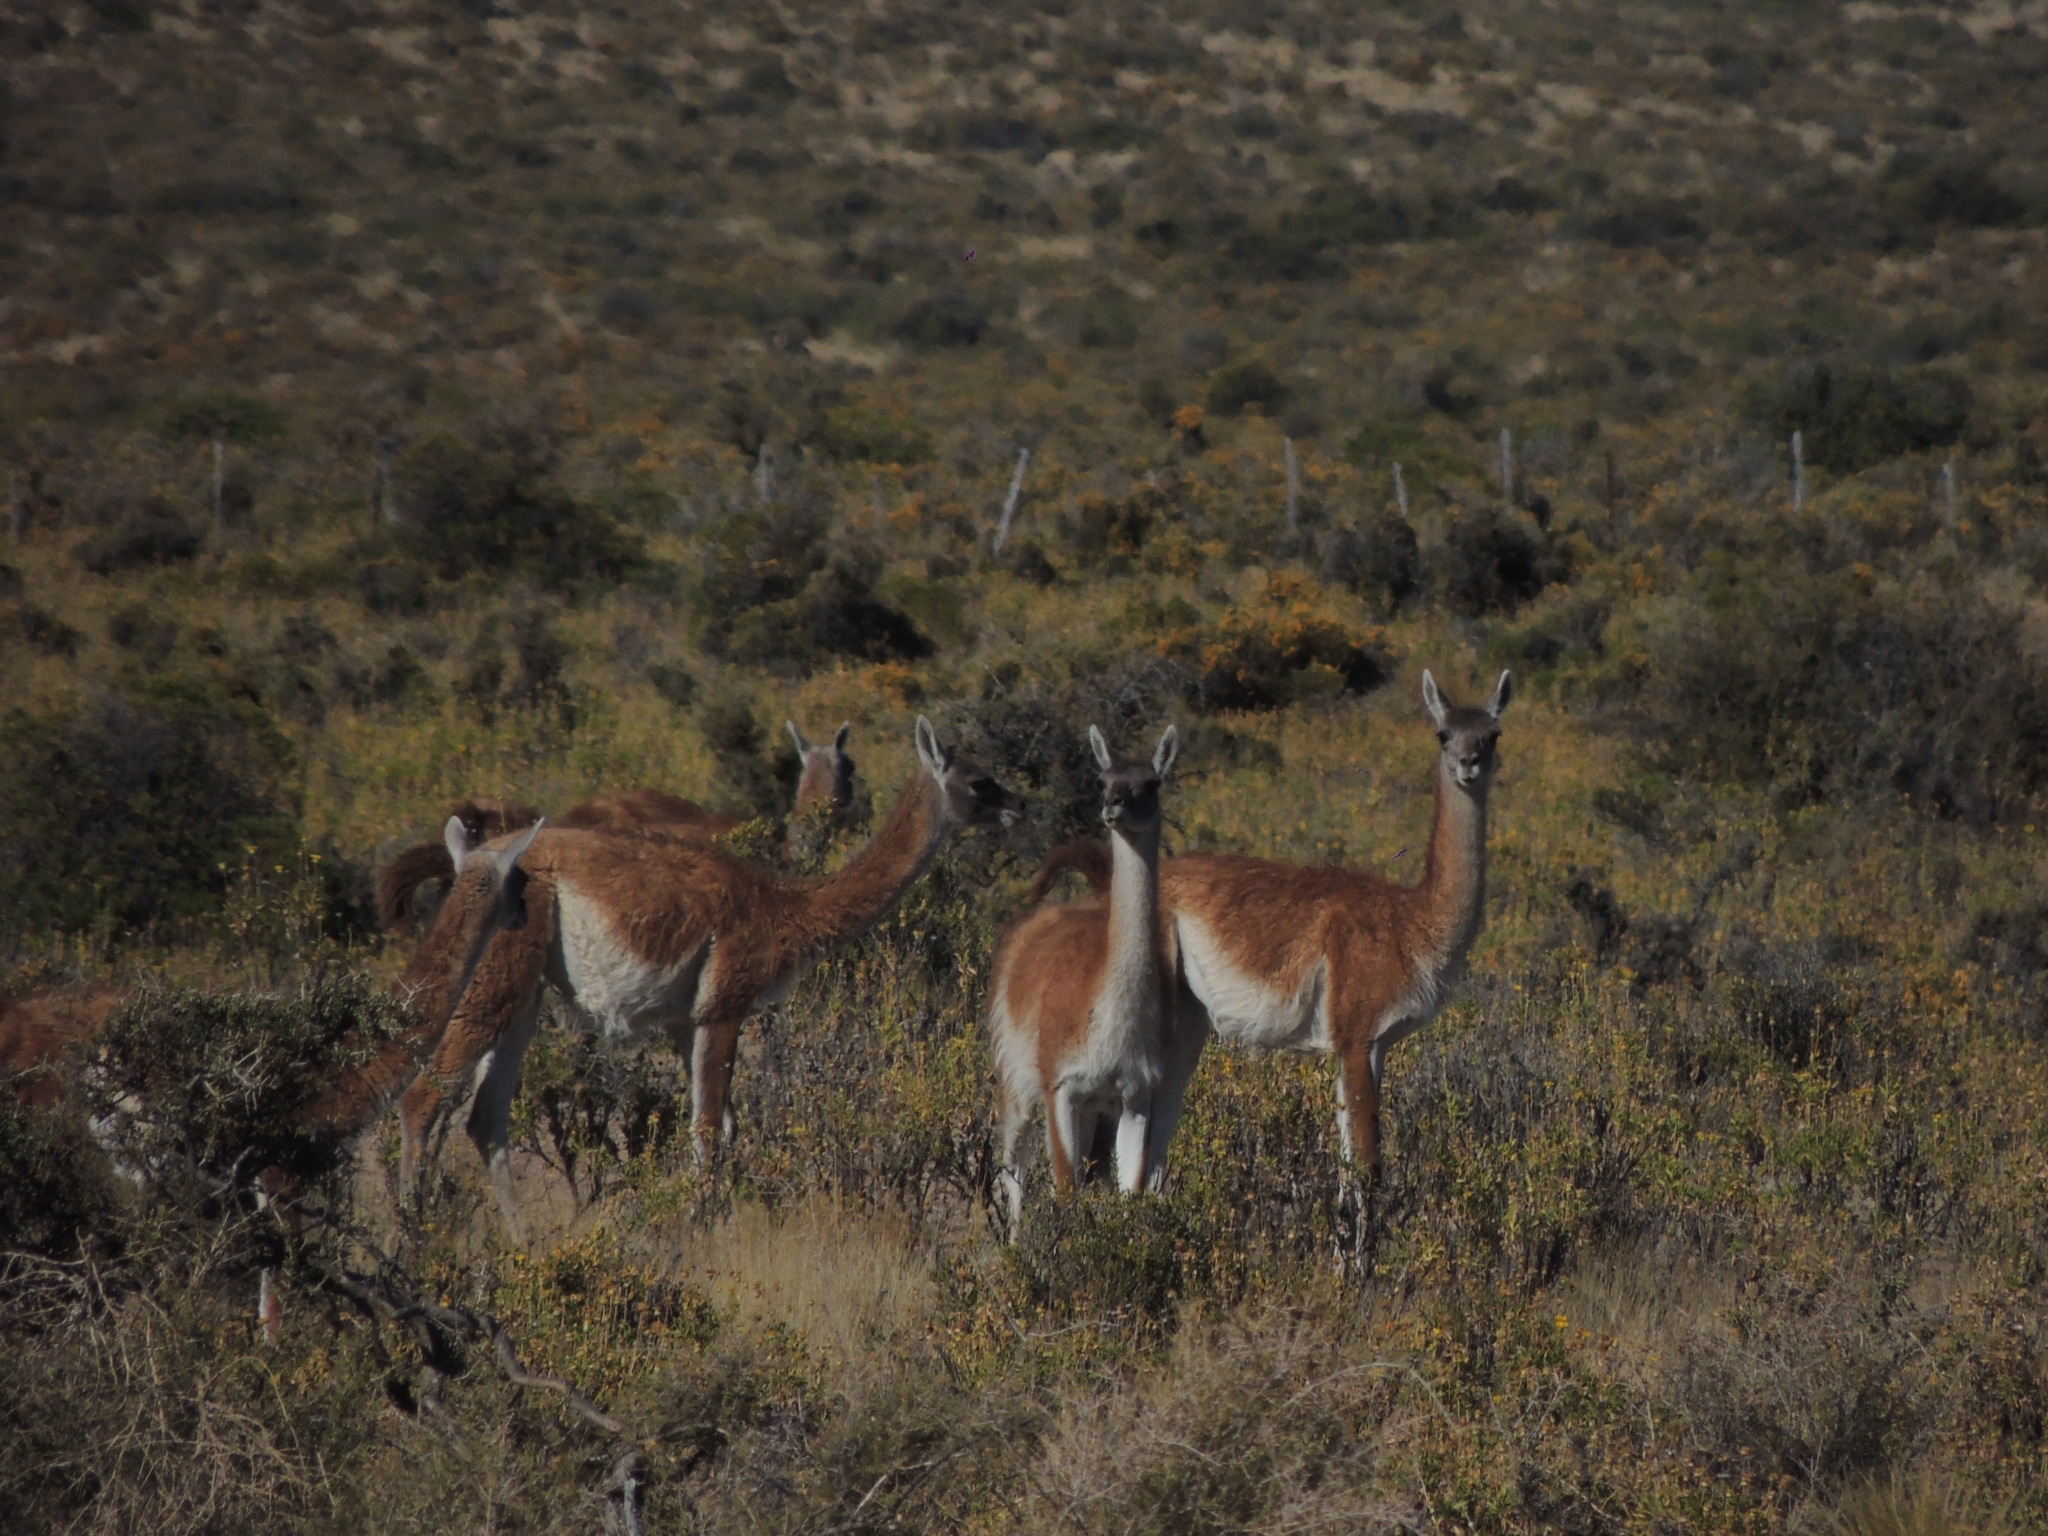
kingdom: Animalia
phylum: Chordata
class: Mammalia
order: Artiodactyla
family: Camelidae
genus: Lama
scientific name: Lama glama
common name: Llama
